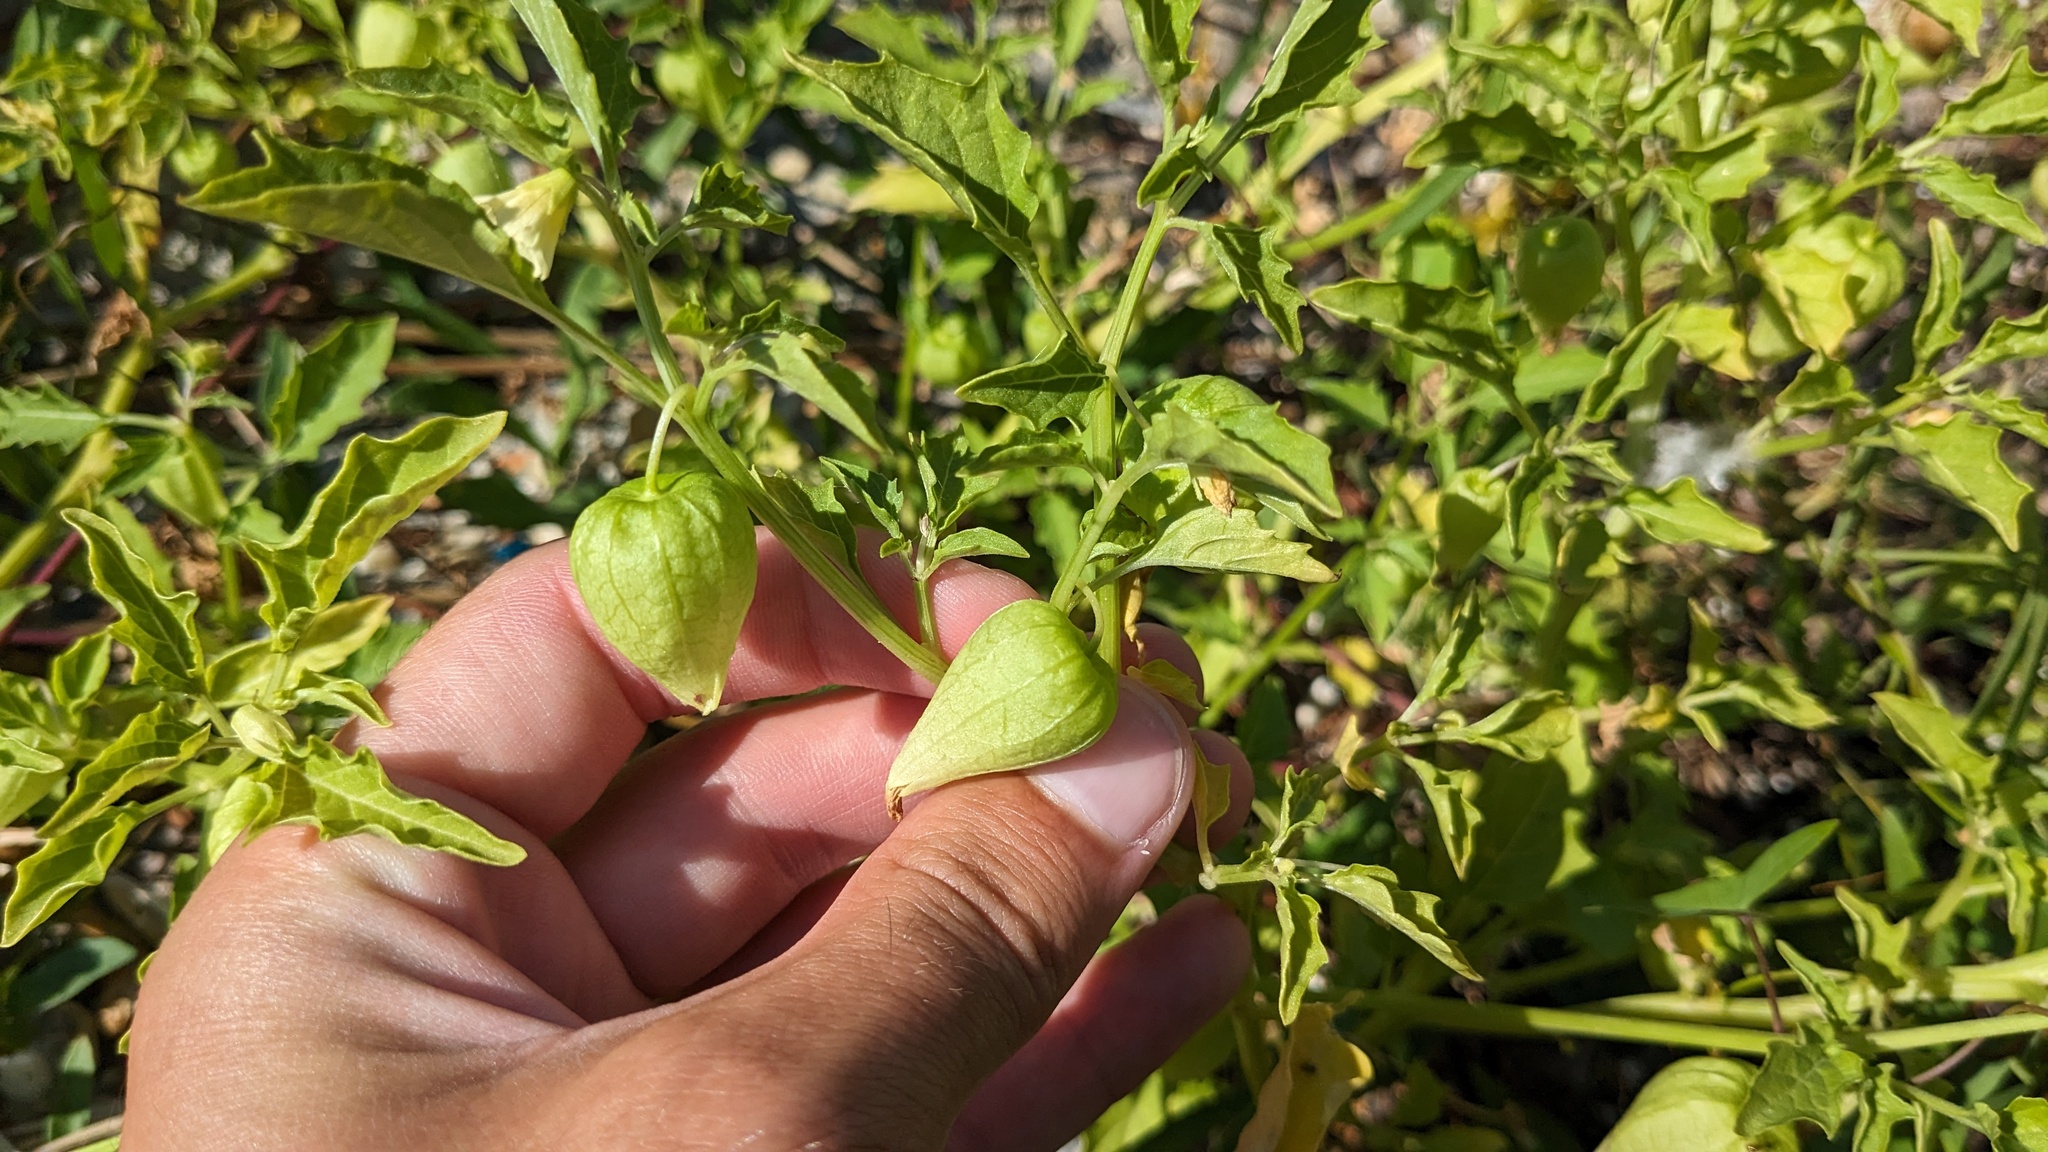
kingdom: Plantae
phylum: Tracheophyta
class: Magnoliopsida
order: Solanales
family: Solanaceae
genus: Physalis
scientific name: Physalis angulata
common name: Angular winter-cherry
